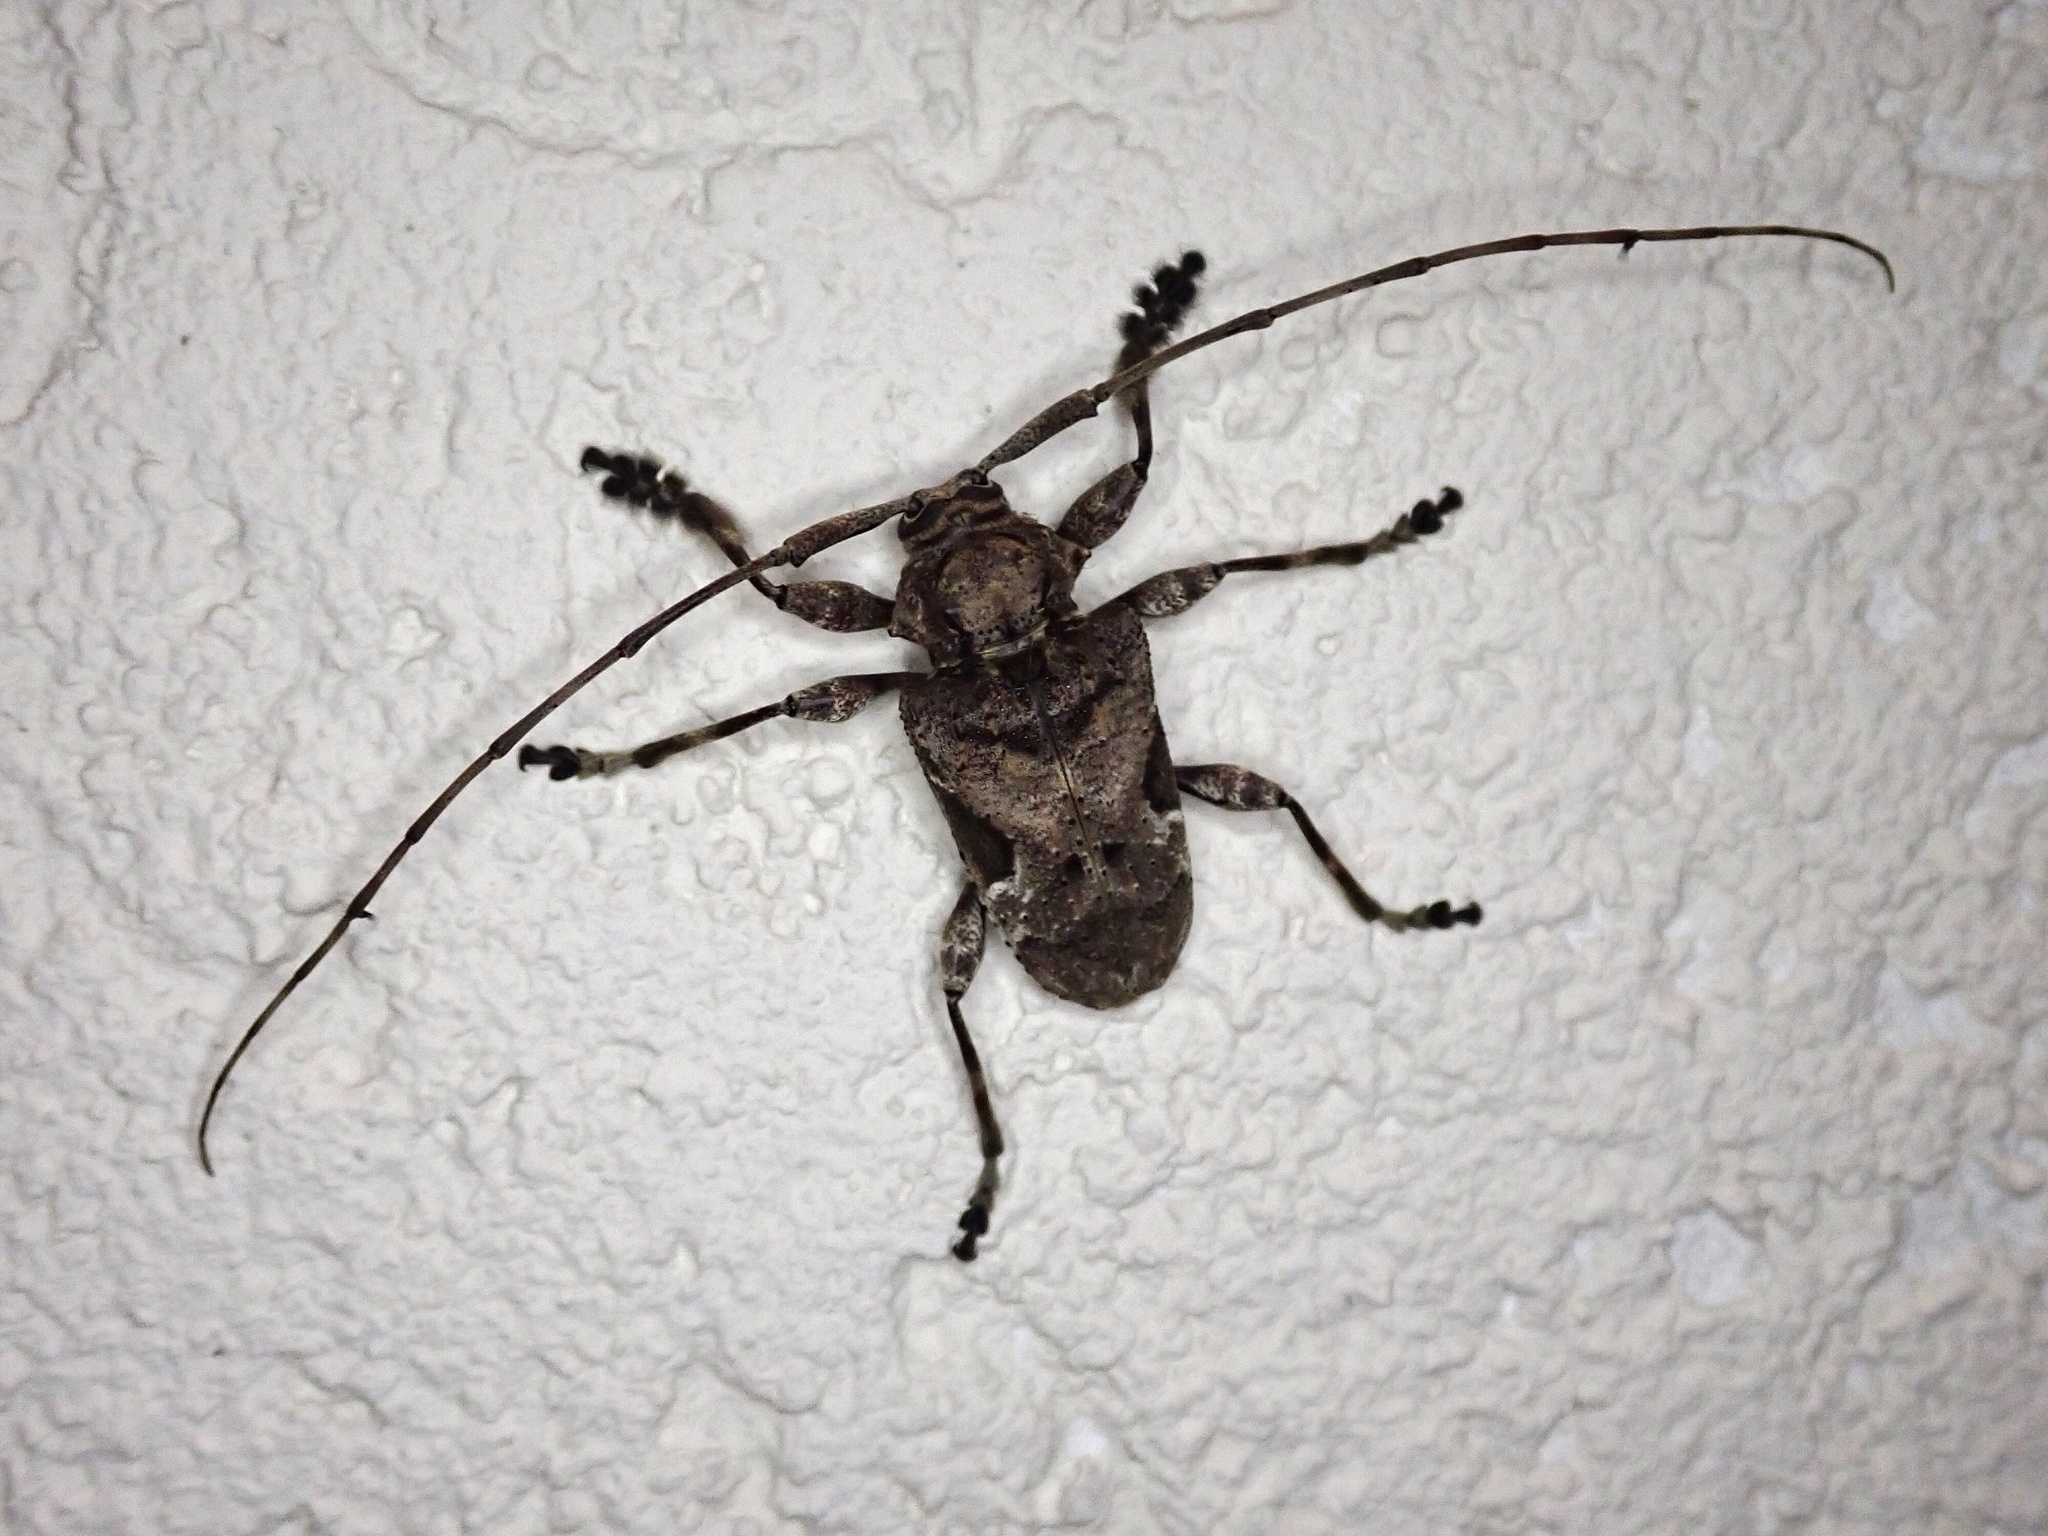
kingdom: Animalia
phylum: Arthropoda
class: Insecta
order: Coleoptera
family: Cerambycidae
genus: Lagocheirus
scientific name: Lagocheirus araneiformis
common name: Beetle
